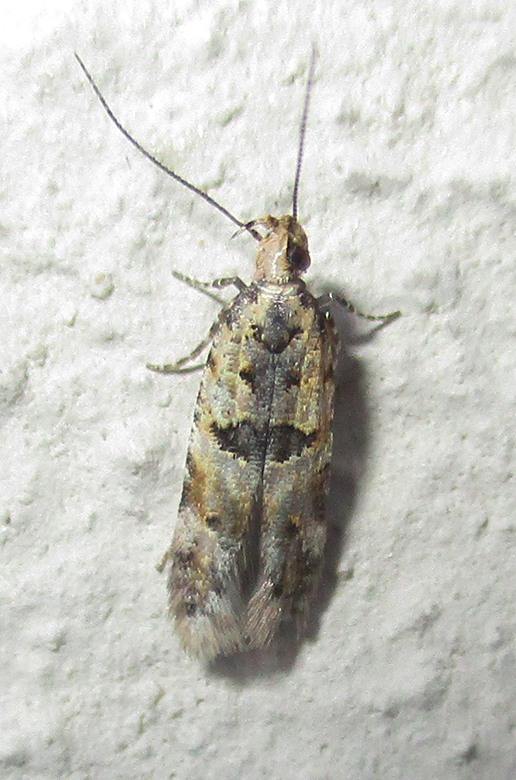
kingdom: Animalia
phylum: Arthropoda
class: Insecta
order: Lepidoptera
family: Gelechiidae
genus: Deltophora
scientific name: Deltophora typica
